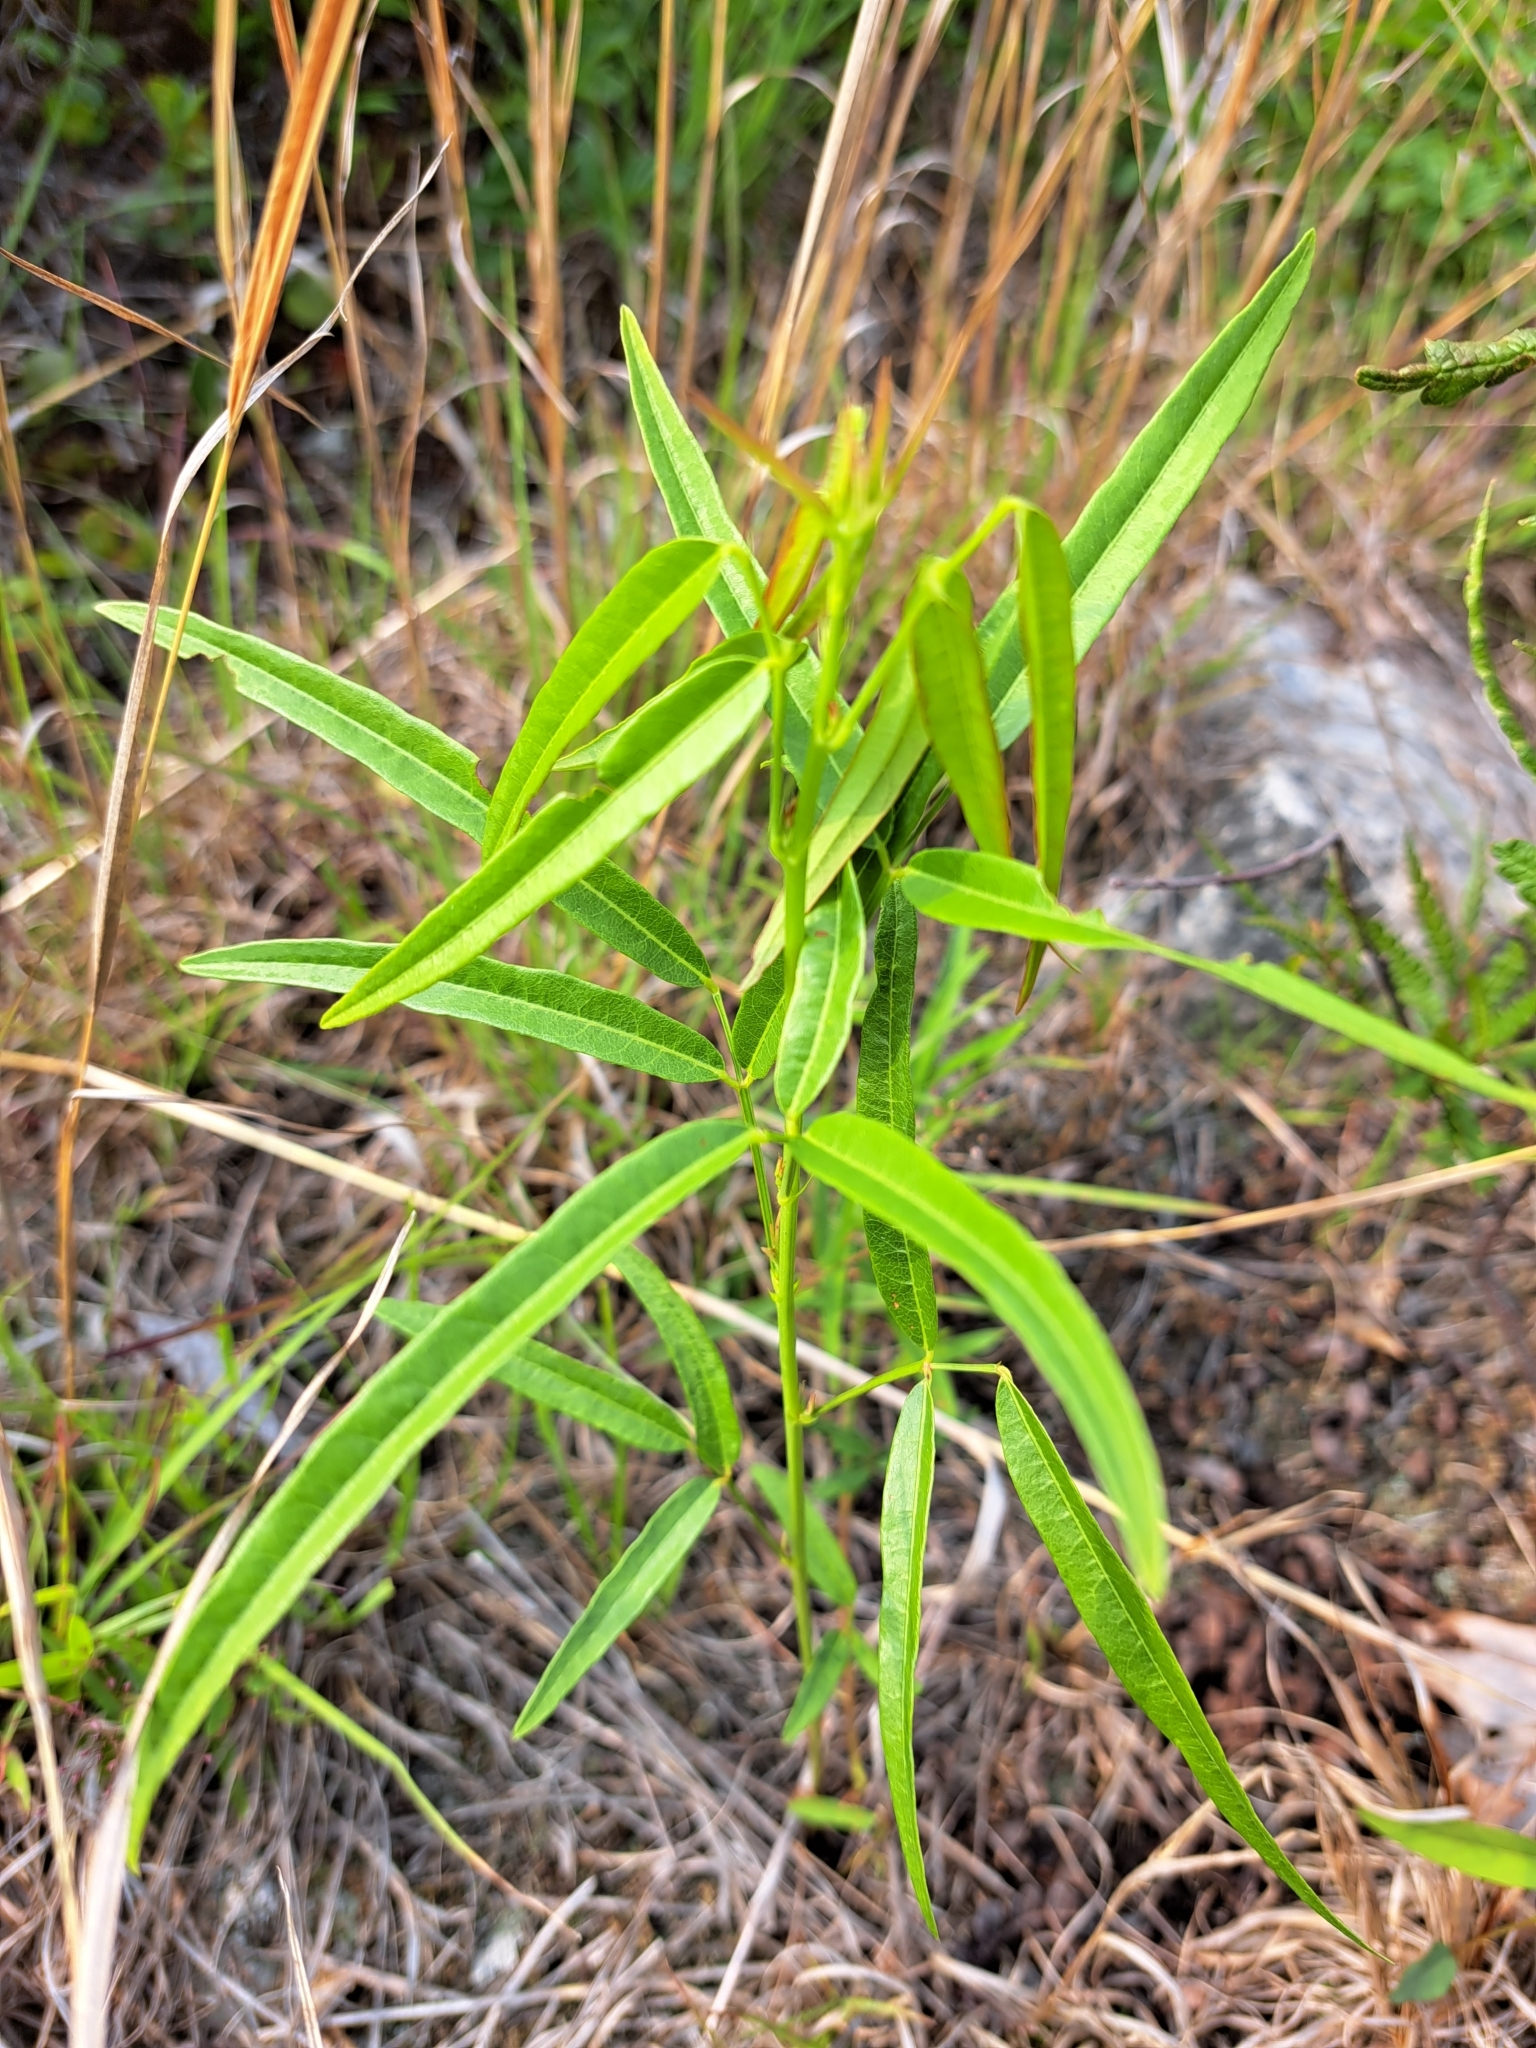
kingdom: Plantae
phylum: Tracheophyta
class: Magnoliopsida
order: Fabales
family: Fabaceae
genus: Desmodium
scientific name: Desmodium paniculatum
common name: Panicled tick-clover
